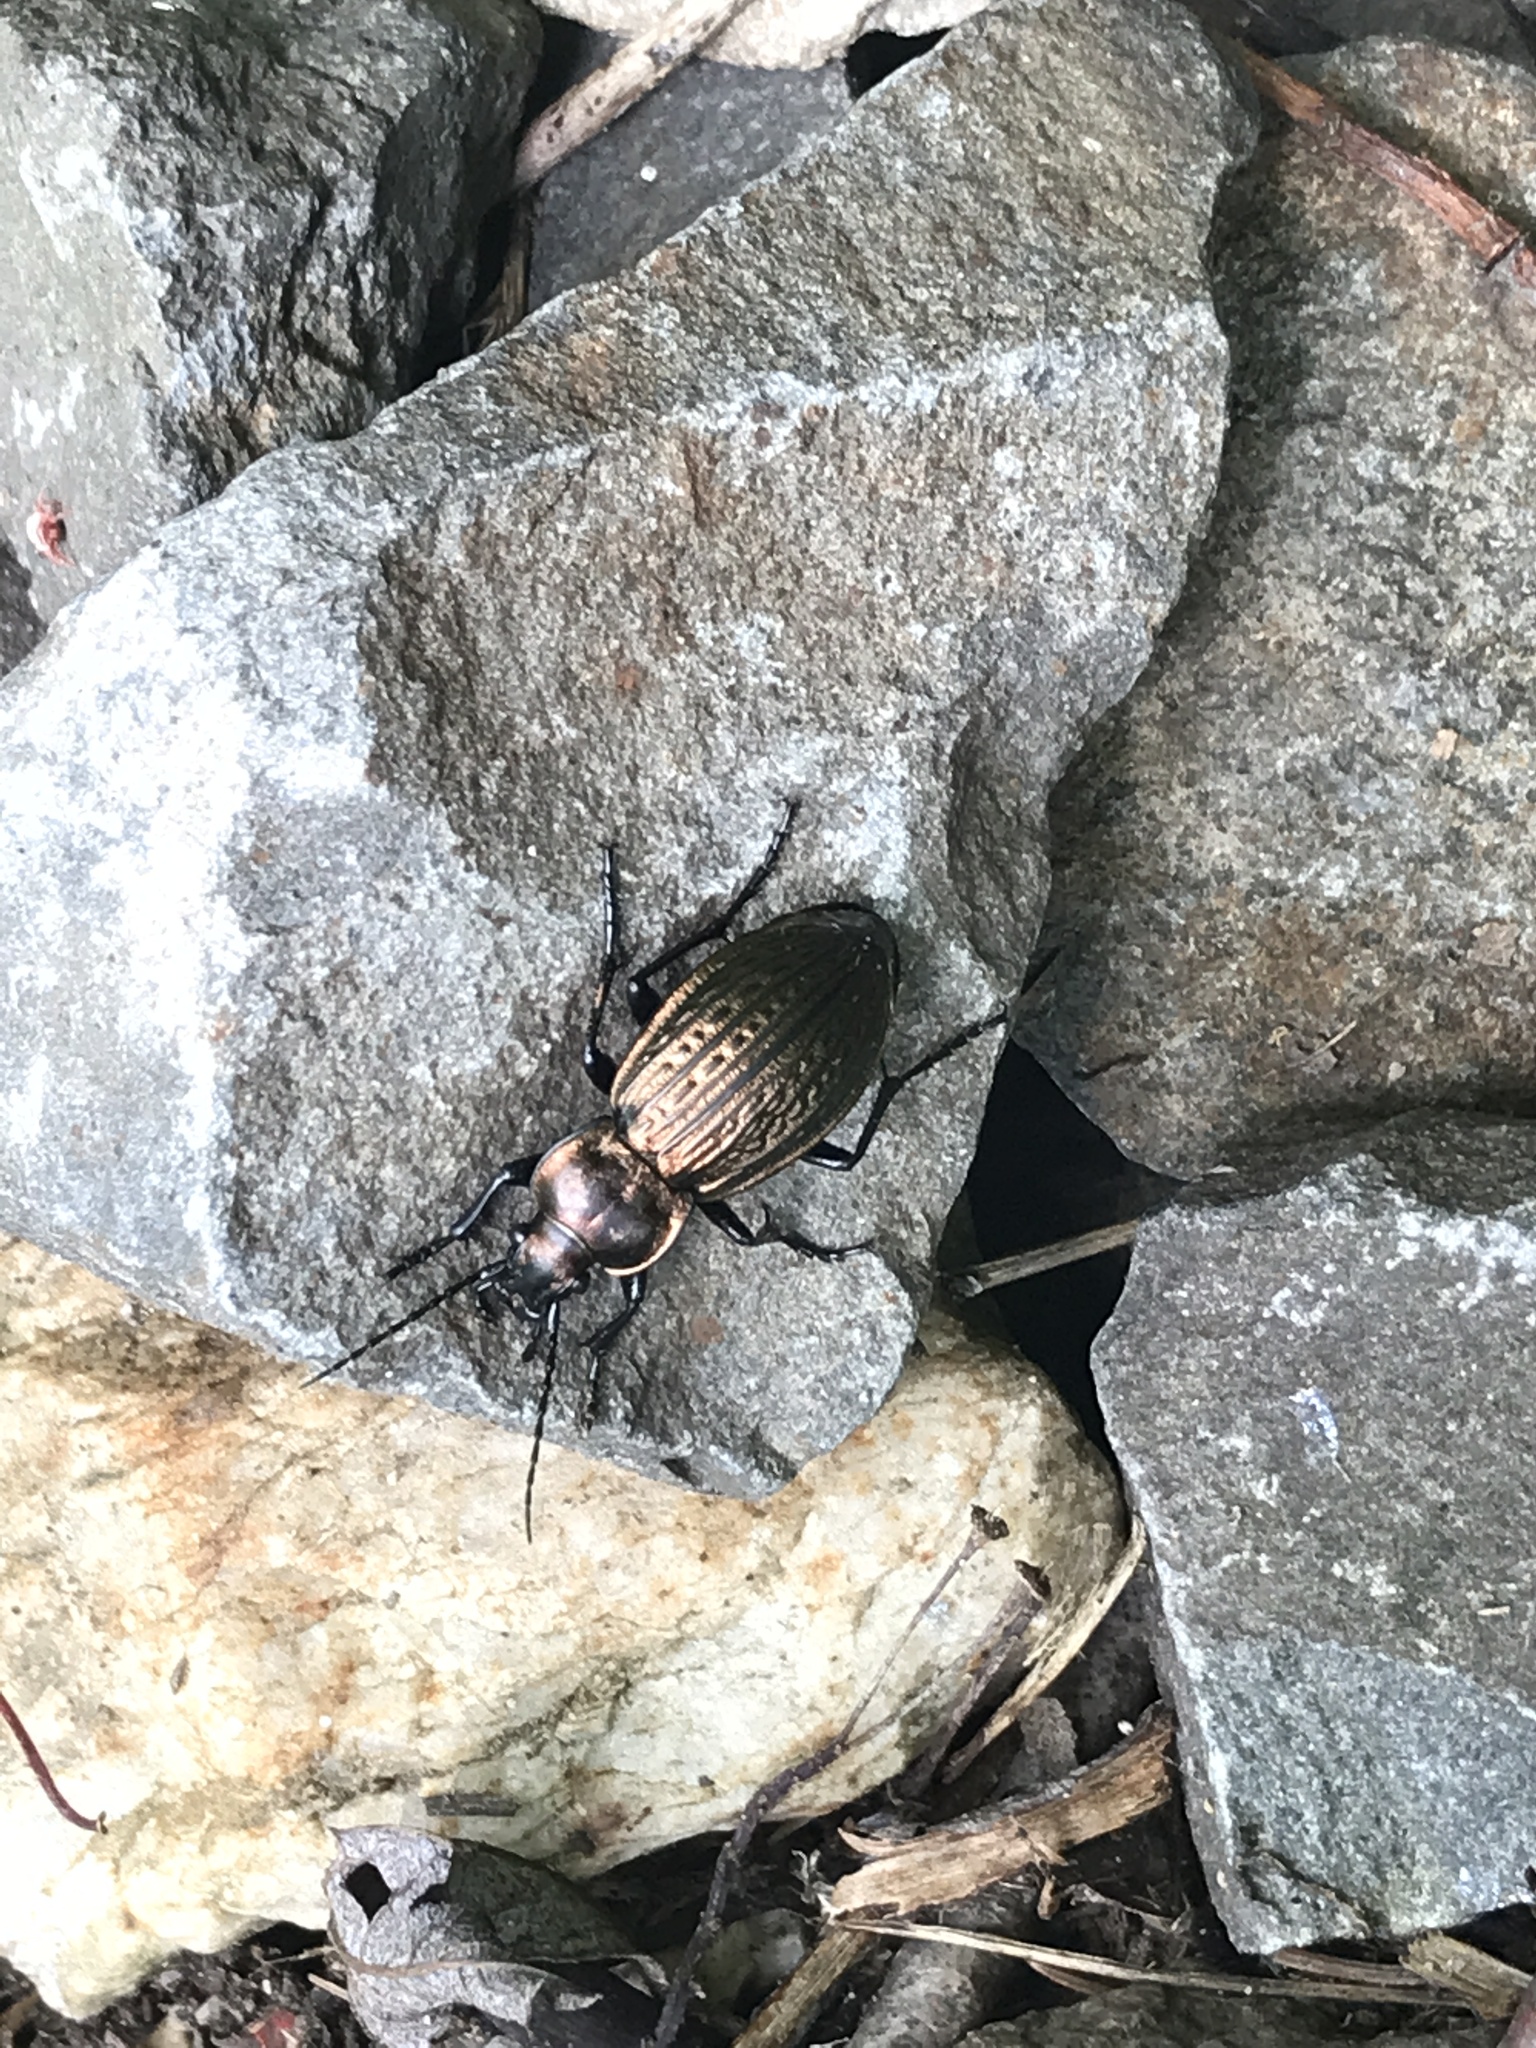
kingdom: Animalia
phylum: Arthropoda
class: Insecta
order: Coleoptera
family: Carabidae
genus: Carabus
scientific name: Carabus ulrichii
